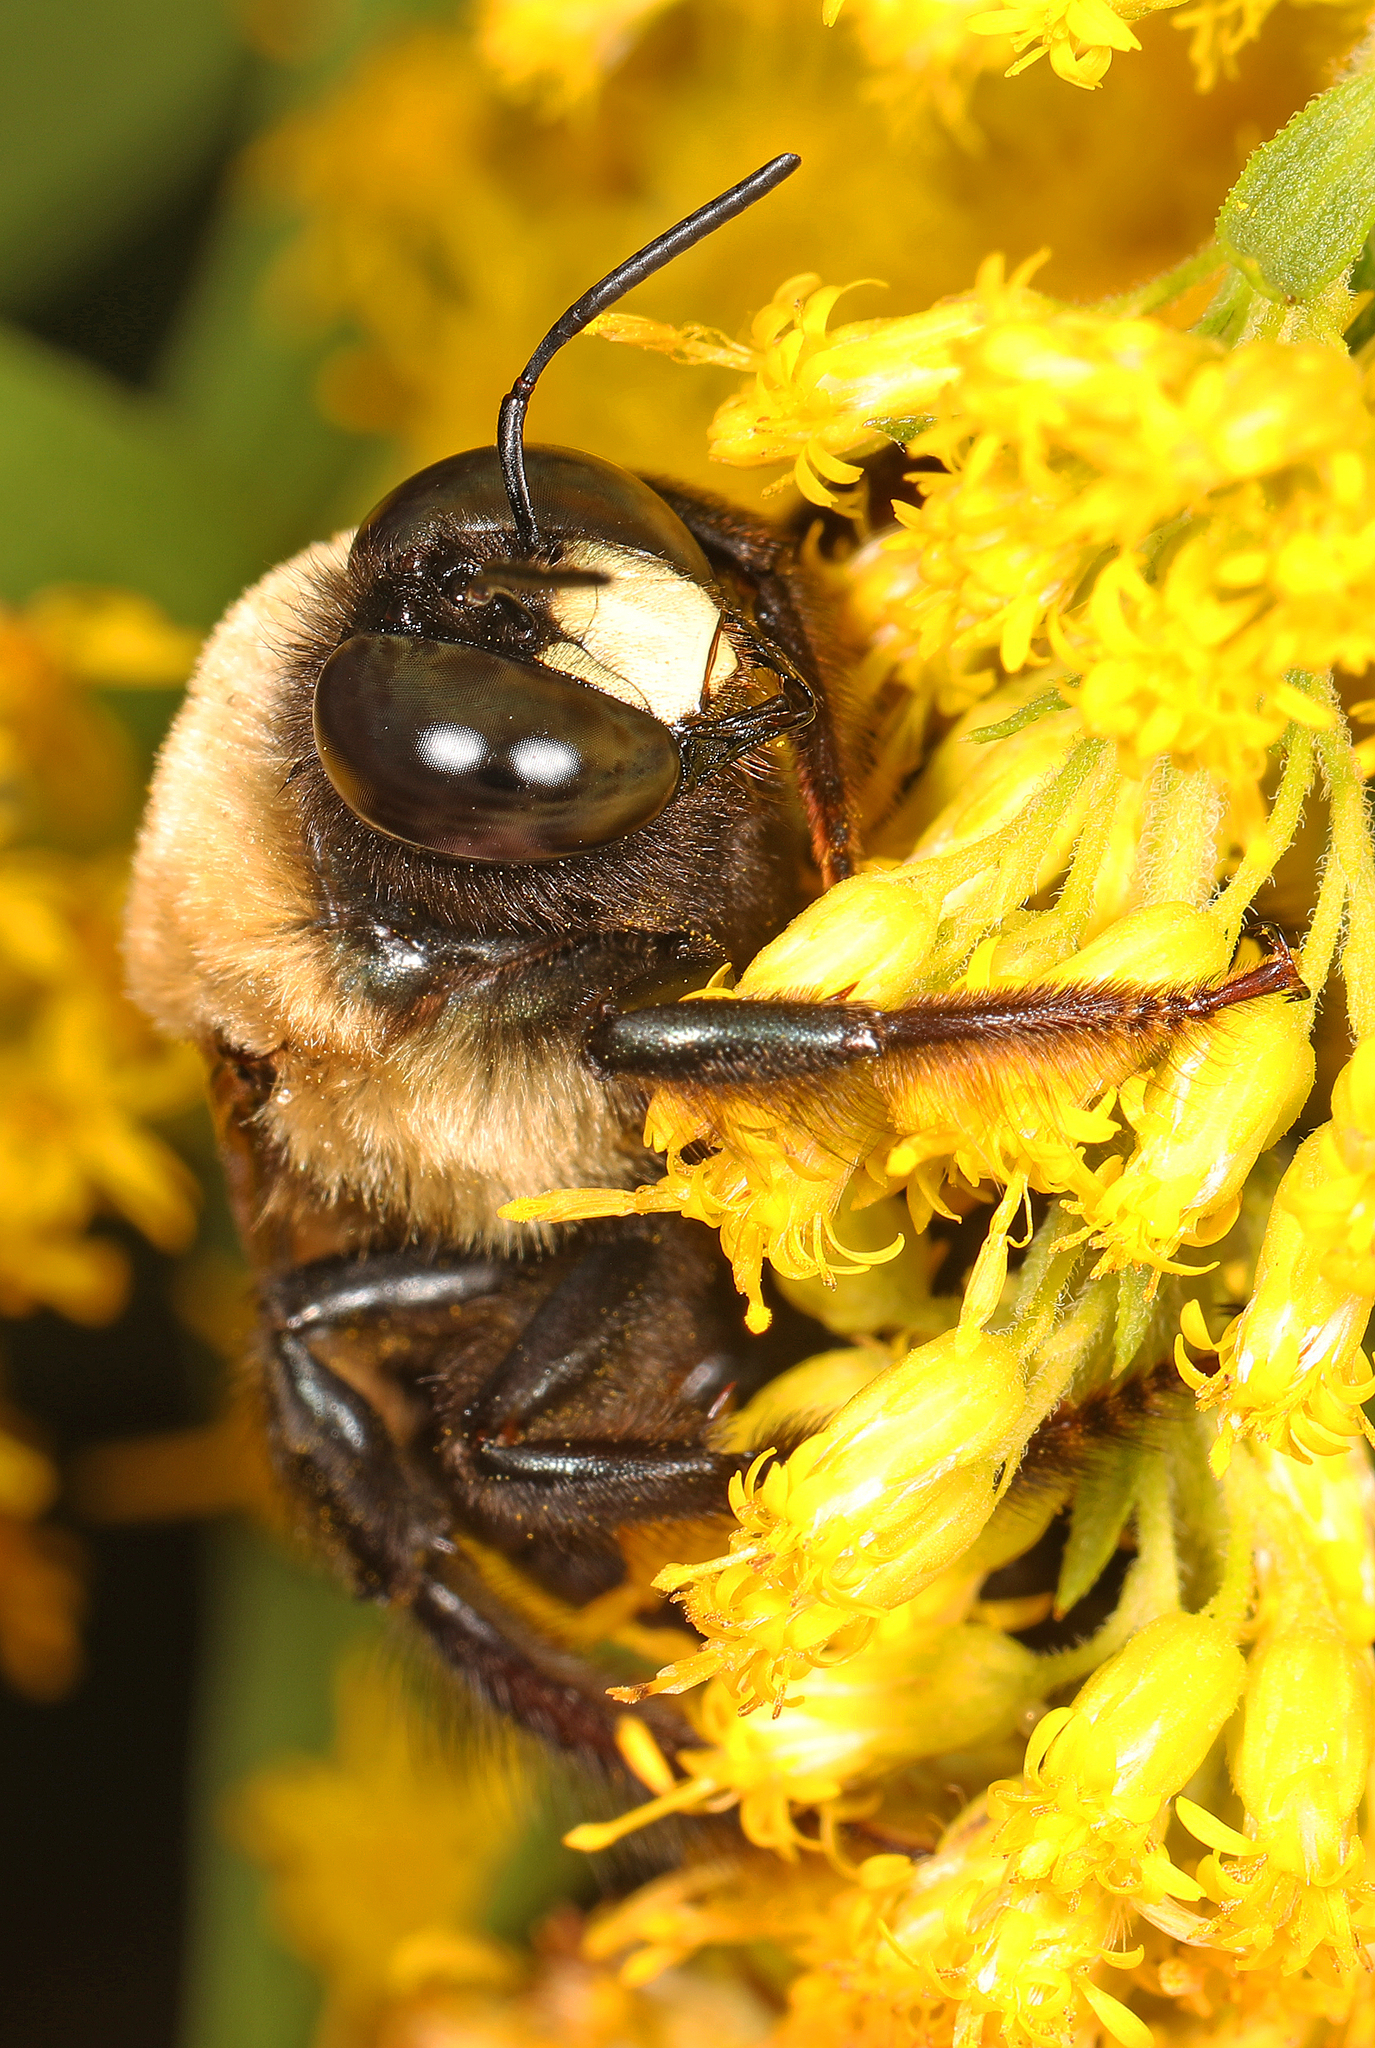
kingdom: Animalia
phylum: Arthropoda
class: Insecta
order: Hymenoptera
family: Apidae
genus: Xylocopa
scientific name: Xylocopa virginica
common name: Carpenter bee
